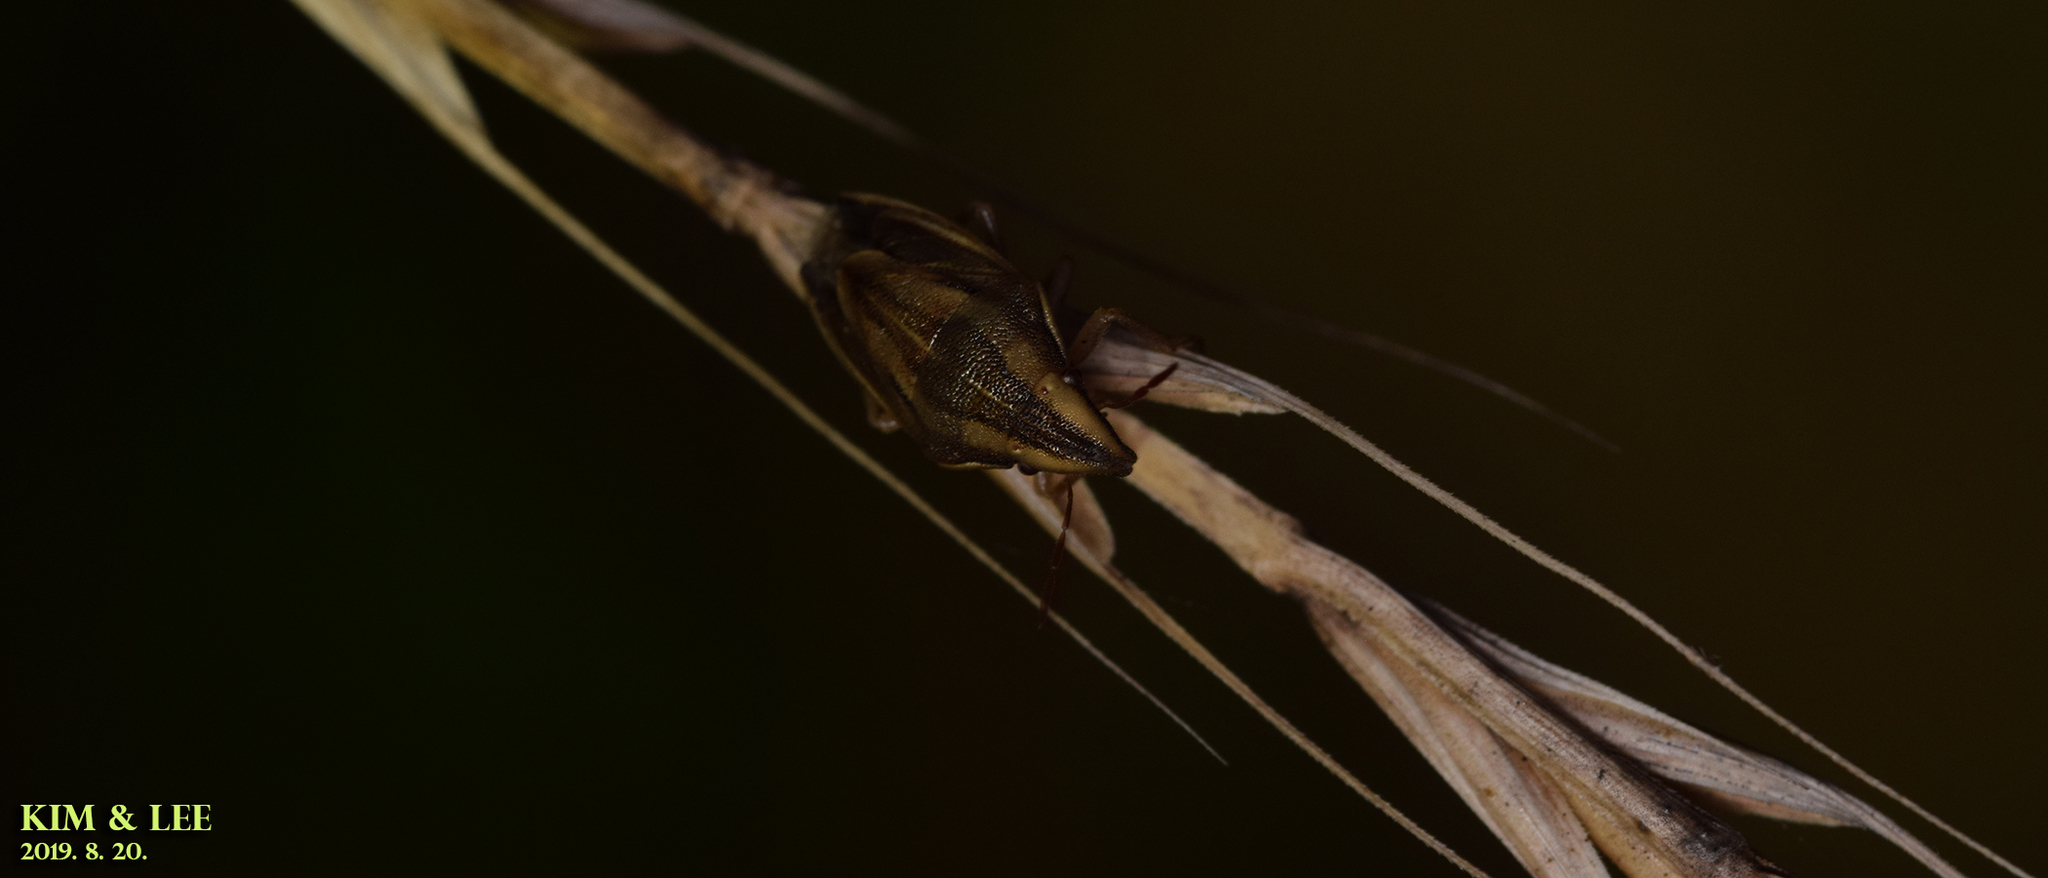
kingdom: Animalia
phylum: Arthropoda
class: Insecta
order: Hemiptera
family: Pentatomidae
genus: Aelia
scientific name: Aelia
